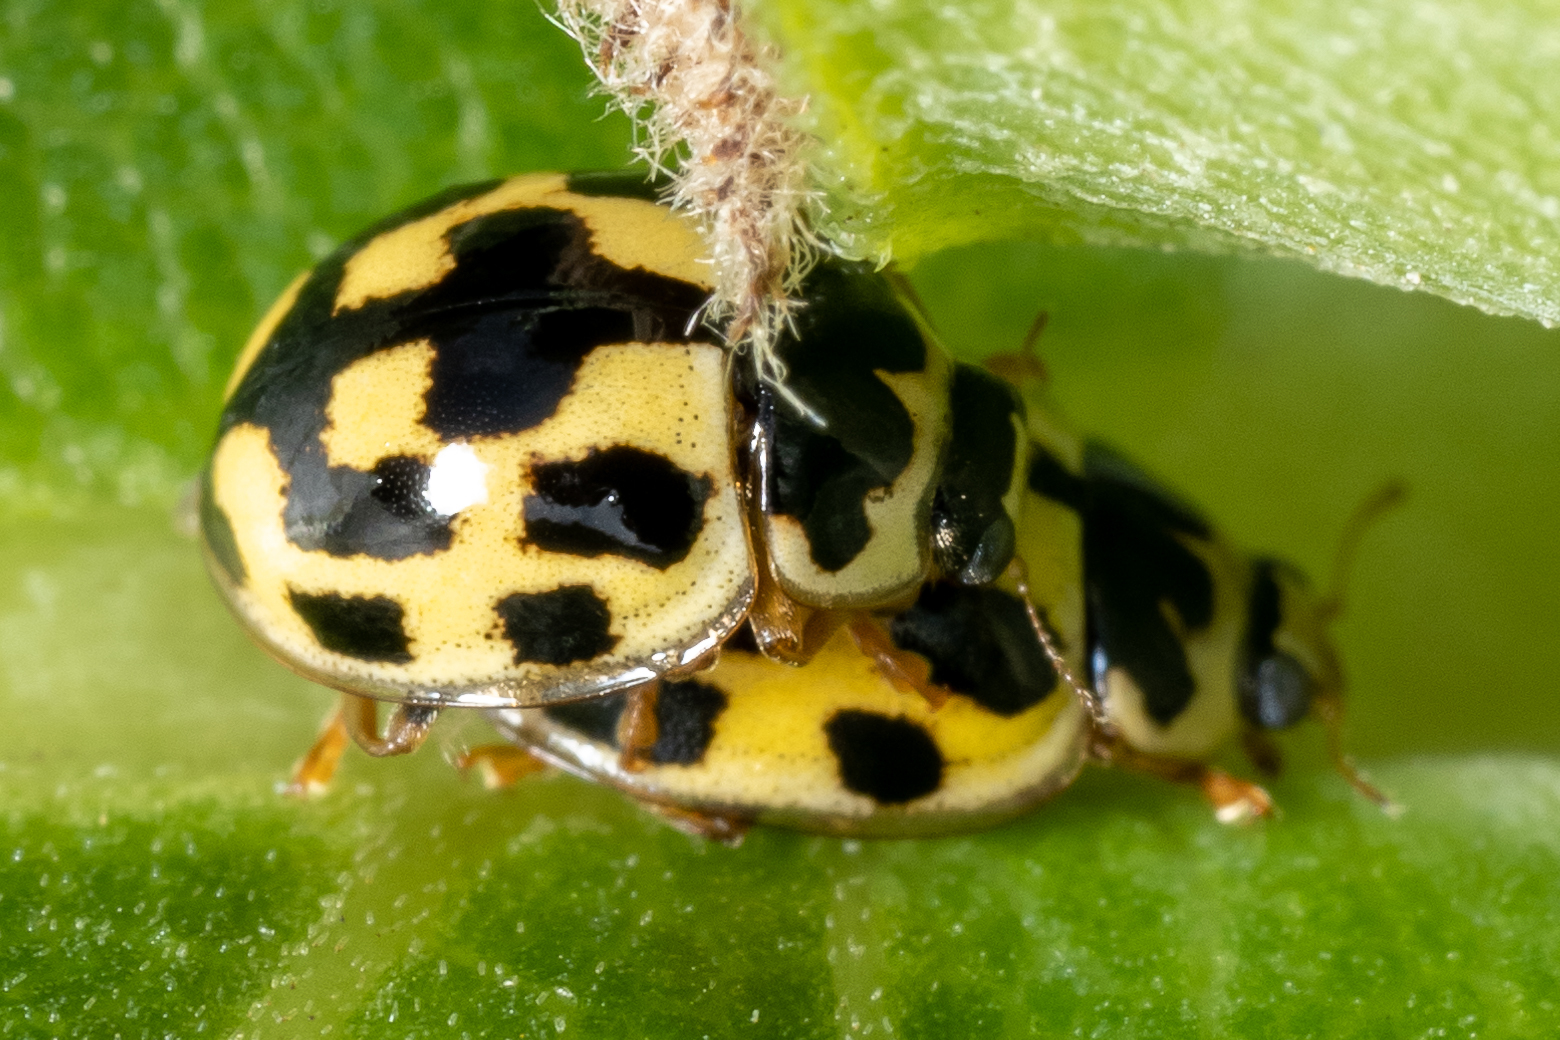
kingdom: Animalia
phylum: Arthropoda
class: Insecta
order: Coleoptera
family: Coccinellidae
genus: Propylaea
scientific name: Propylaea quatuordecimpunctata
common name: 14-spotted ladybird beetle
